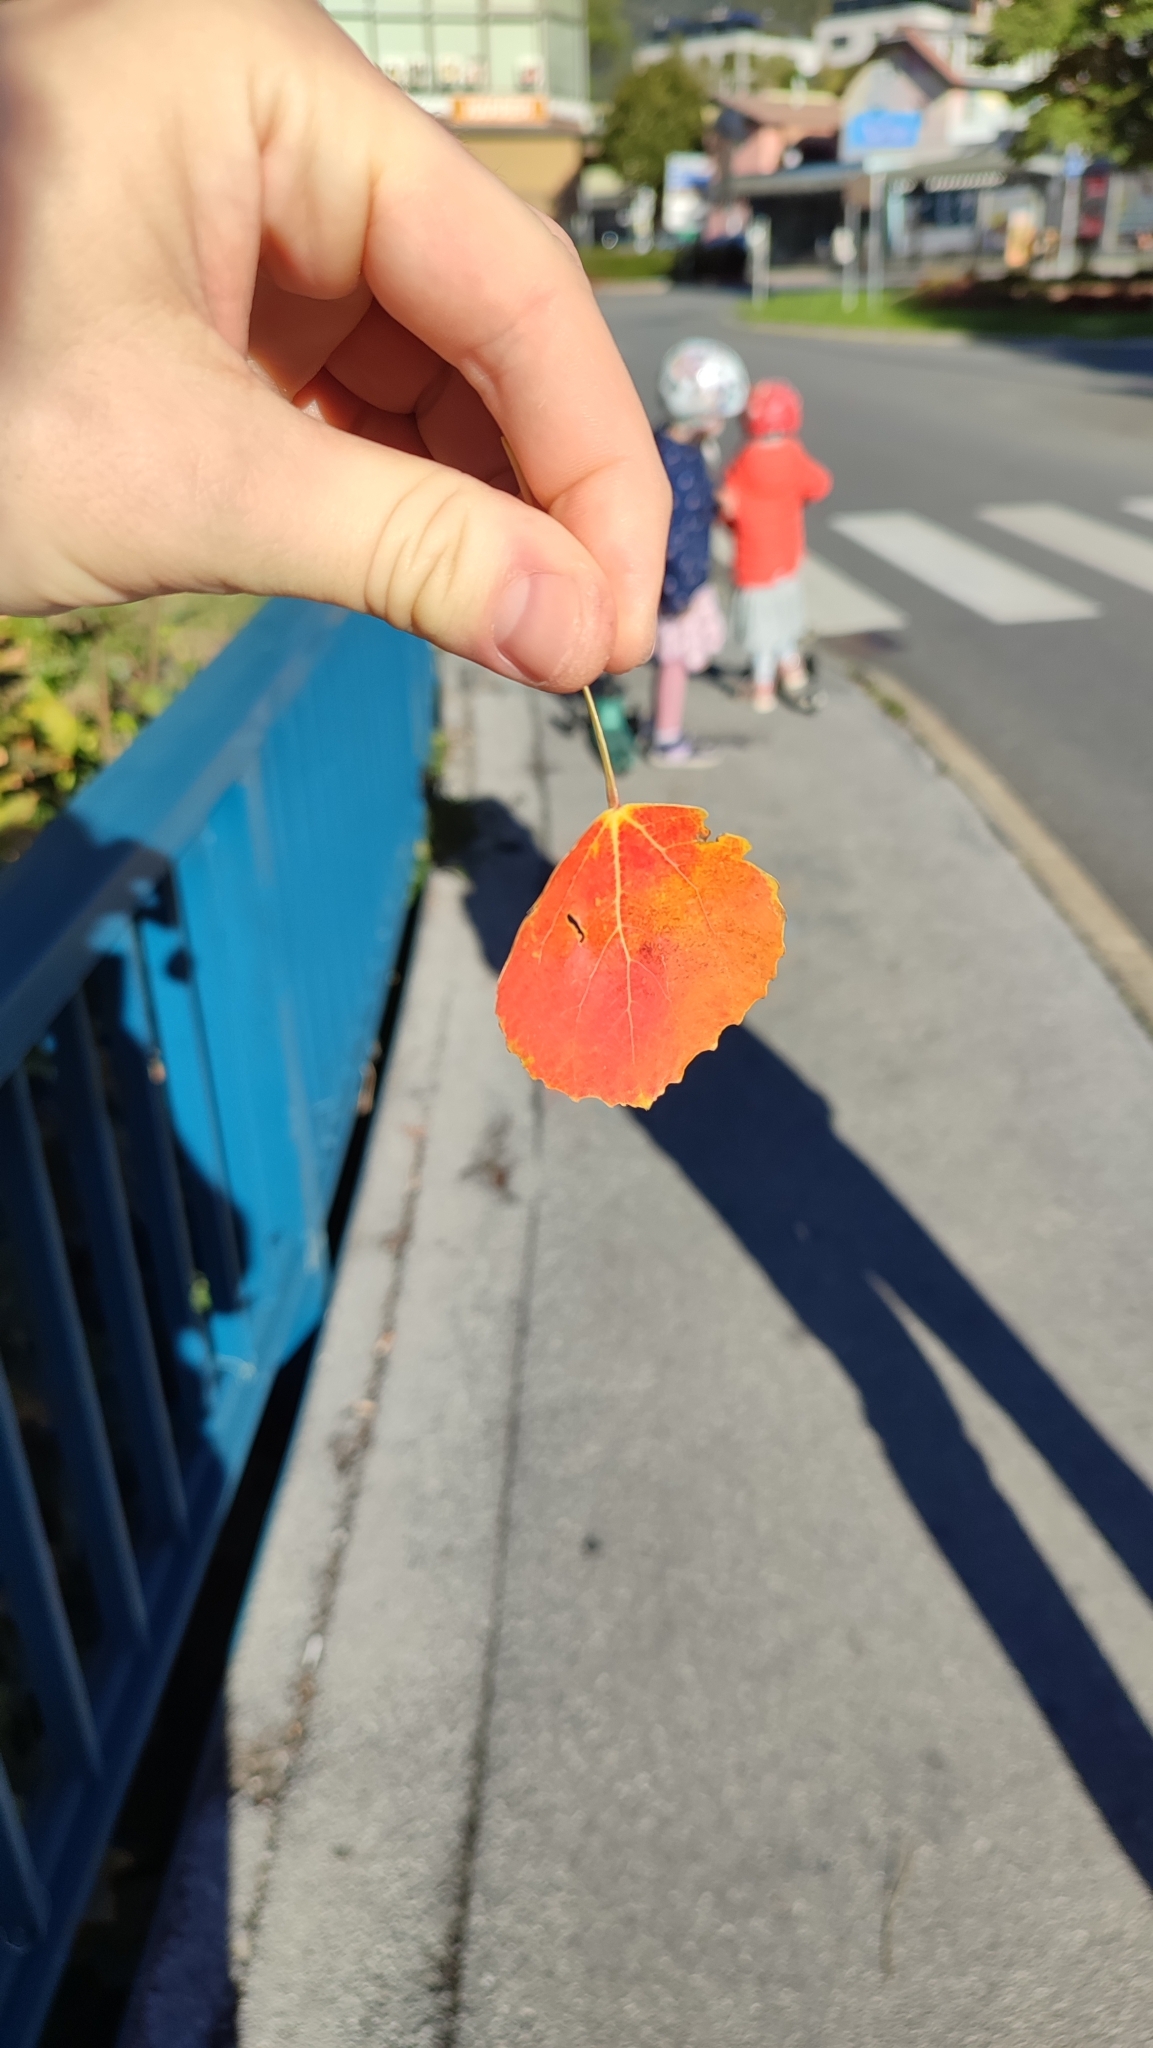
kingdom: Plantae
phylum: Tracheophyta
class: Magnoliopsida
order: Malpighiales
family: Salicaceae
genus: Populus
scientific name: Populus tremula
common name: European aspen
